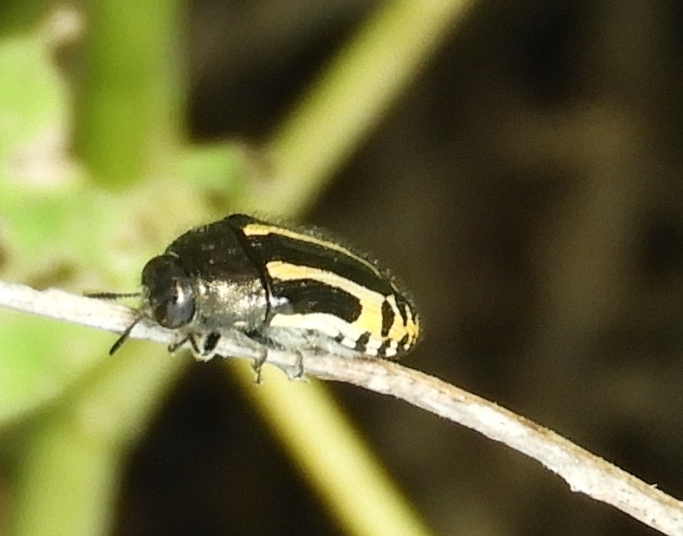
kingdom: Animalia
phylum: Arthropoda
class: Insecta
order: Coleoptera
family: Buprestidae
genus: Acmaeodera
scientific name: Acmaeodera scalaris
